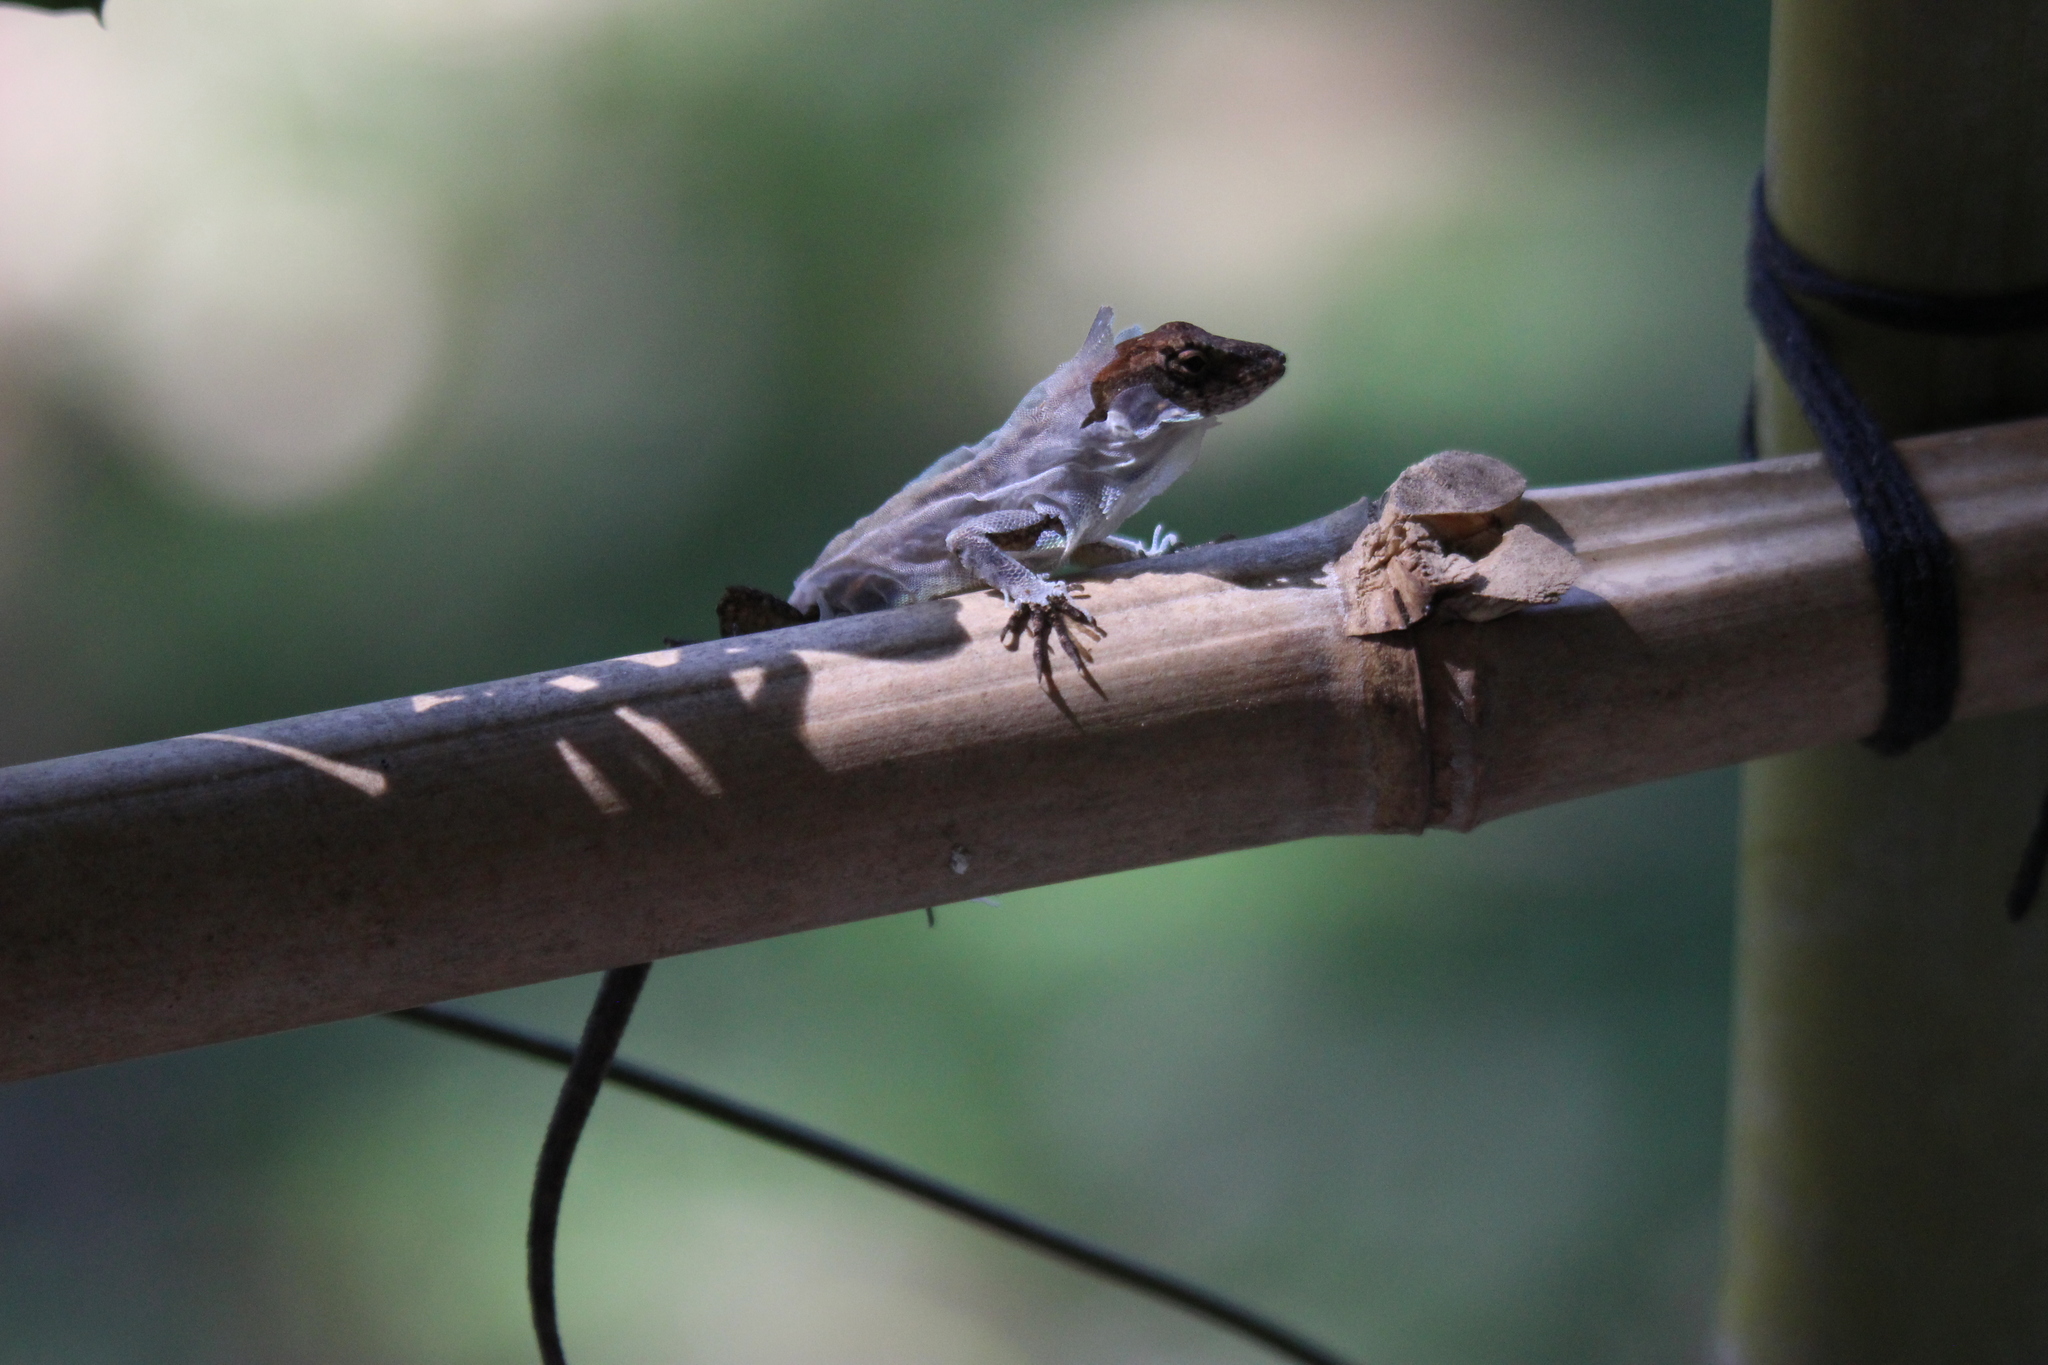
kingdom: Animalia
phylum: Chordata
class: Squamata
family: Dactyloidae
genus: Anolis
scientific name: Anolis sagrei
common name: Brown anole
